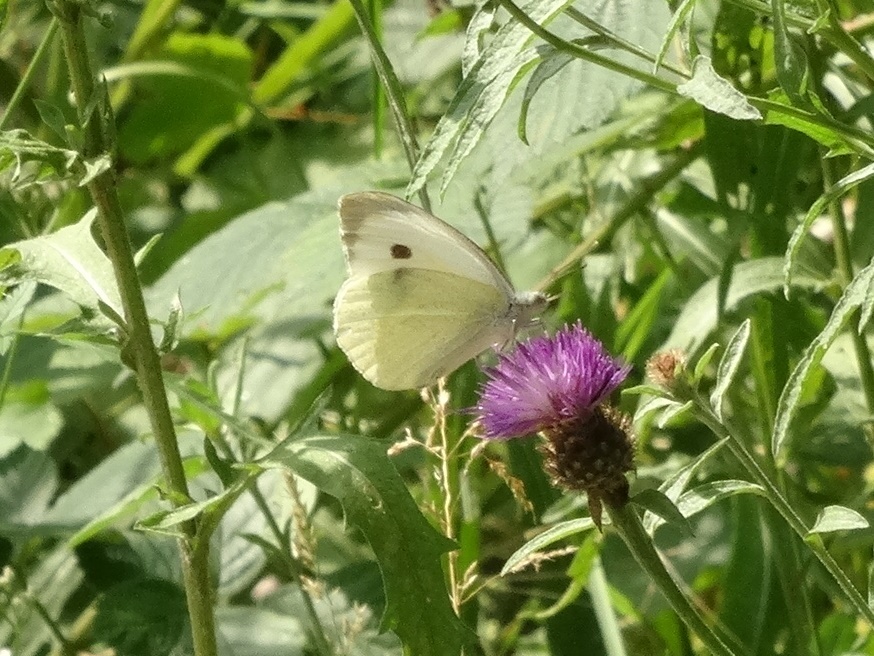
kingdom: Animalia
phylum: Arthropoda
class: Insecta
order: Lepidoptera
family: Pieridae
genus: Pieris
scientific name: Pieris brassicae
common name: Large white
